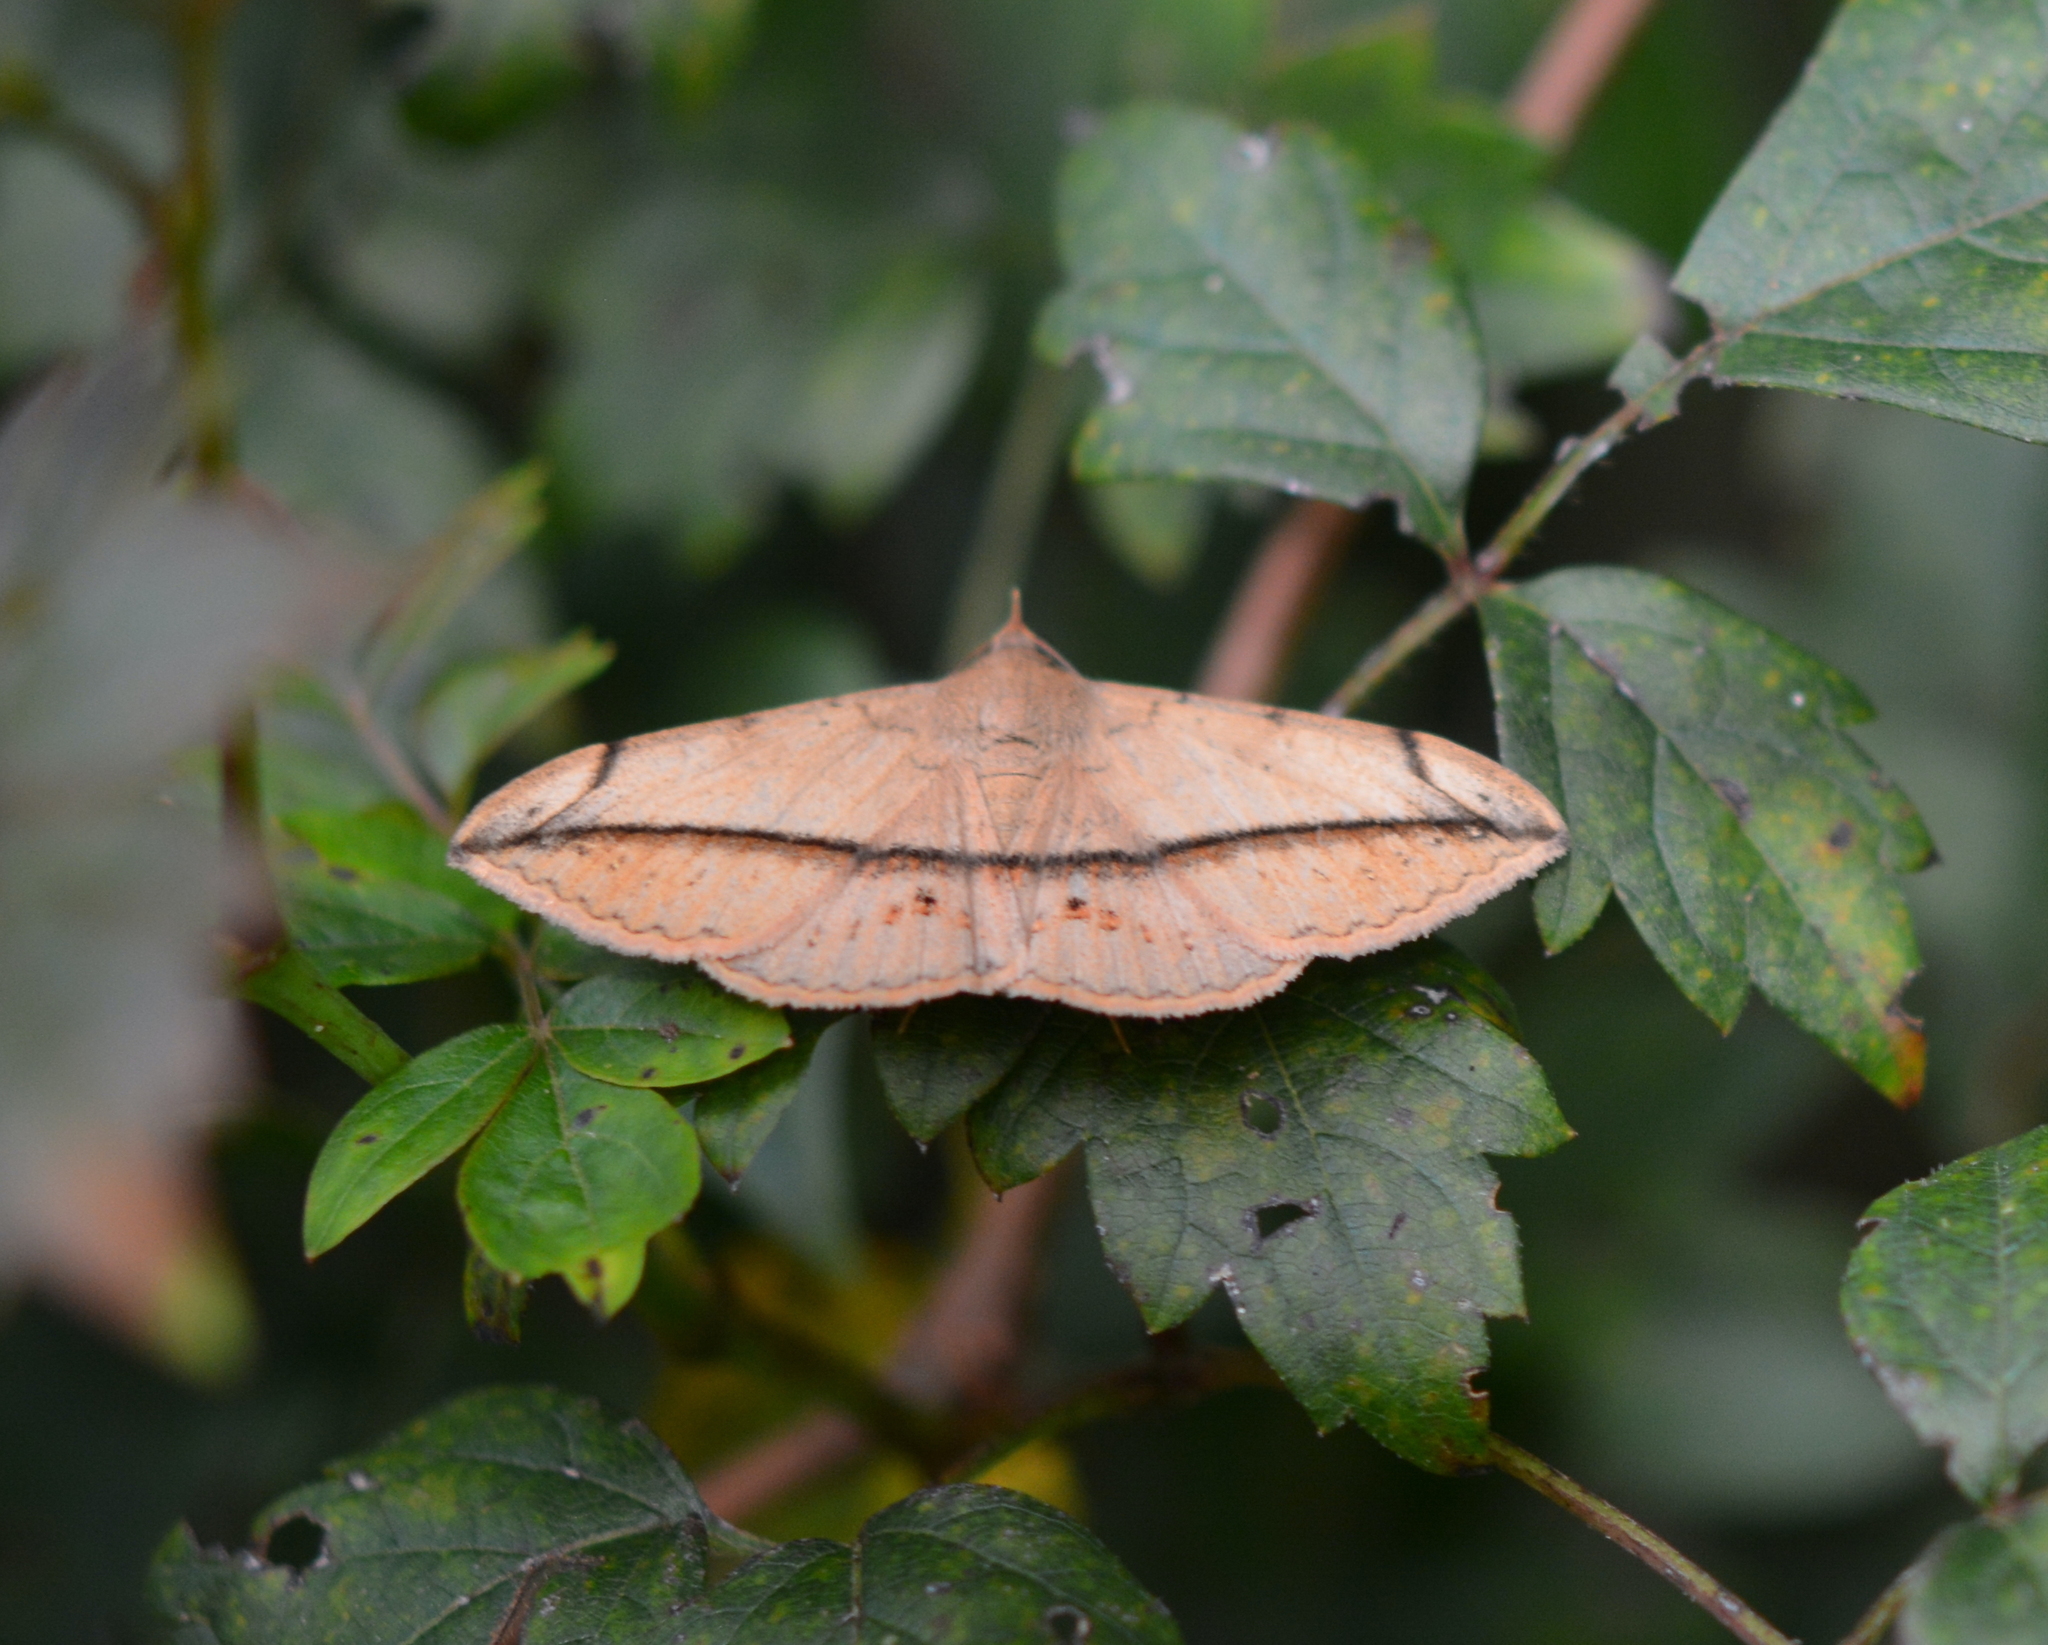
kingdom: Animalia
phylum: Arthropoda
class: Insecta
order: Lepidoptera
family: Erebidae
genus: Anticarsia
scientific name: Anticarsia gemmatalis
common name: Cutworm moth
